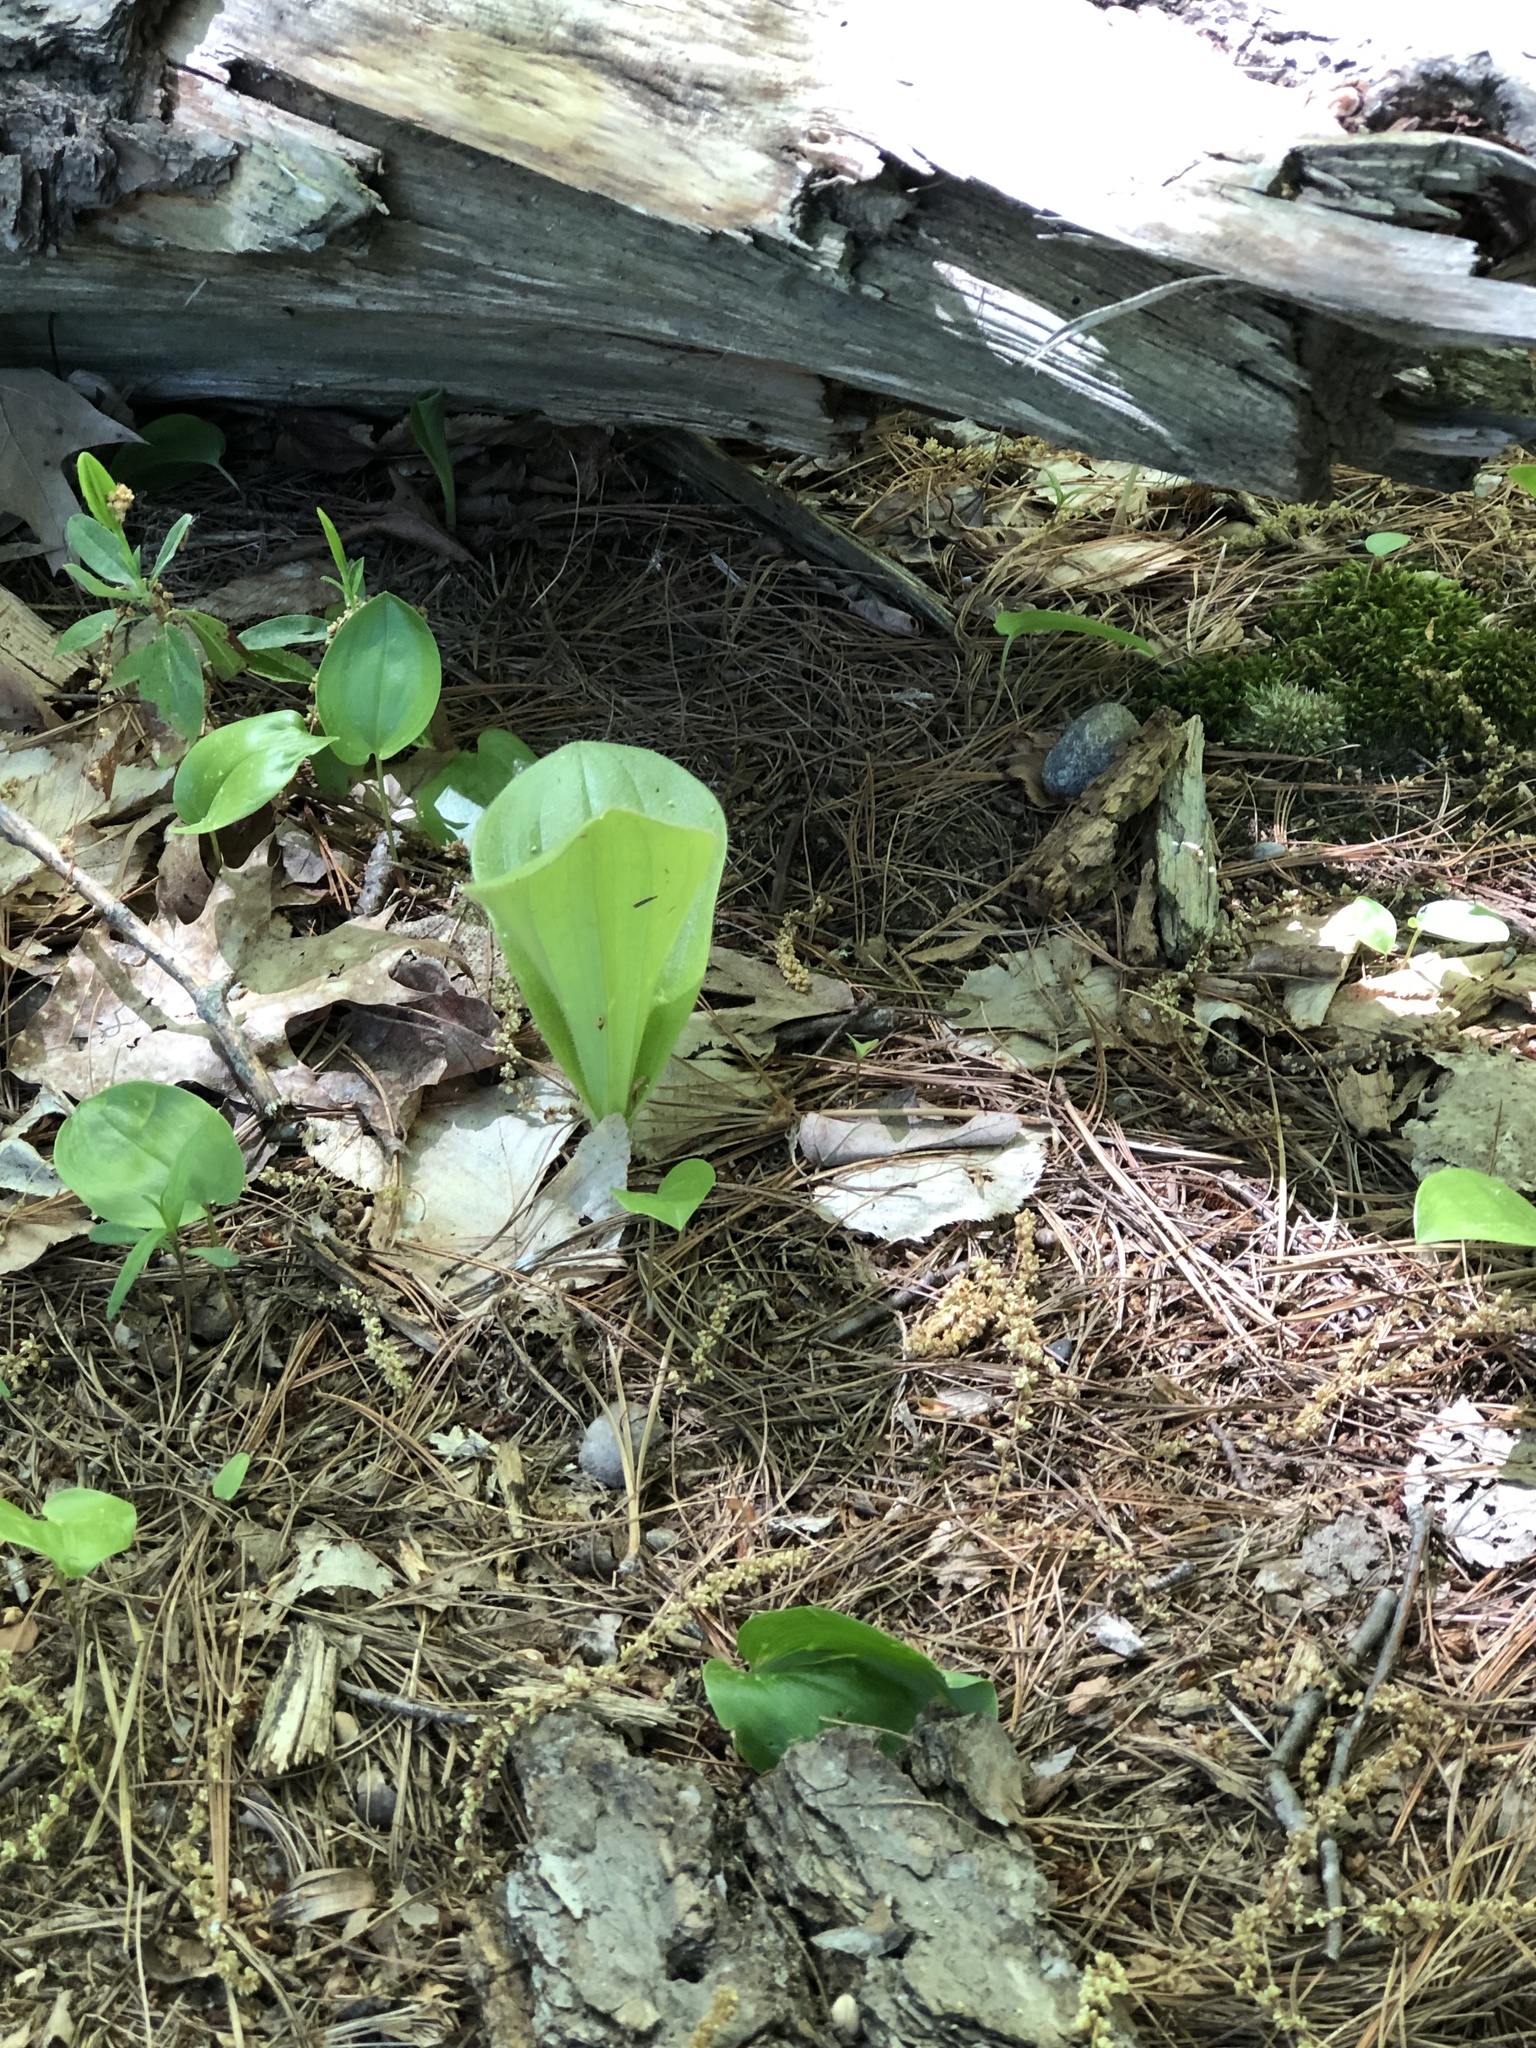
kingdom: Plantae
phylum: Tracheophyta
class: Liliopsida
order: Asparagales
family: Orchidaceae
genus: Cypripedium
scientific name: Cypripedium acaule
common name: Pink lady's-slipper
